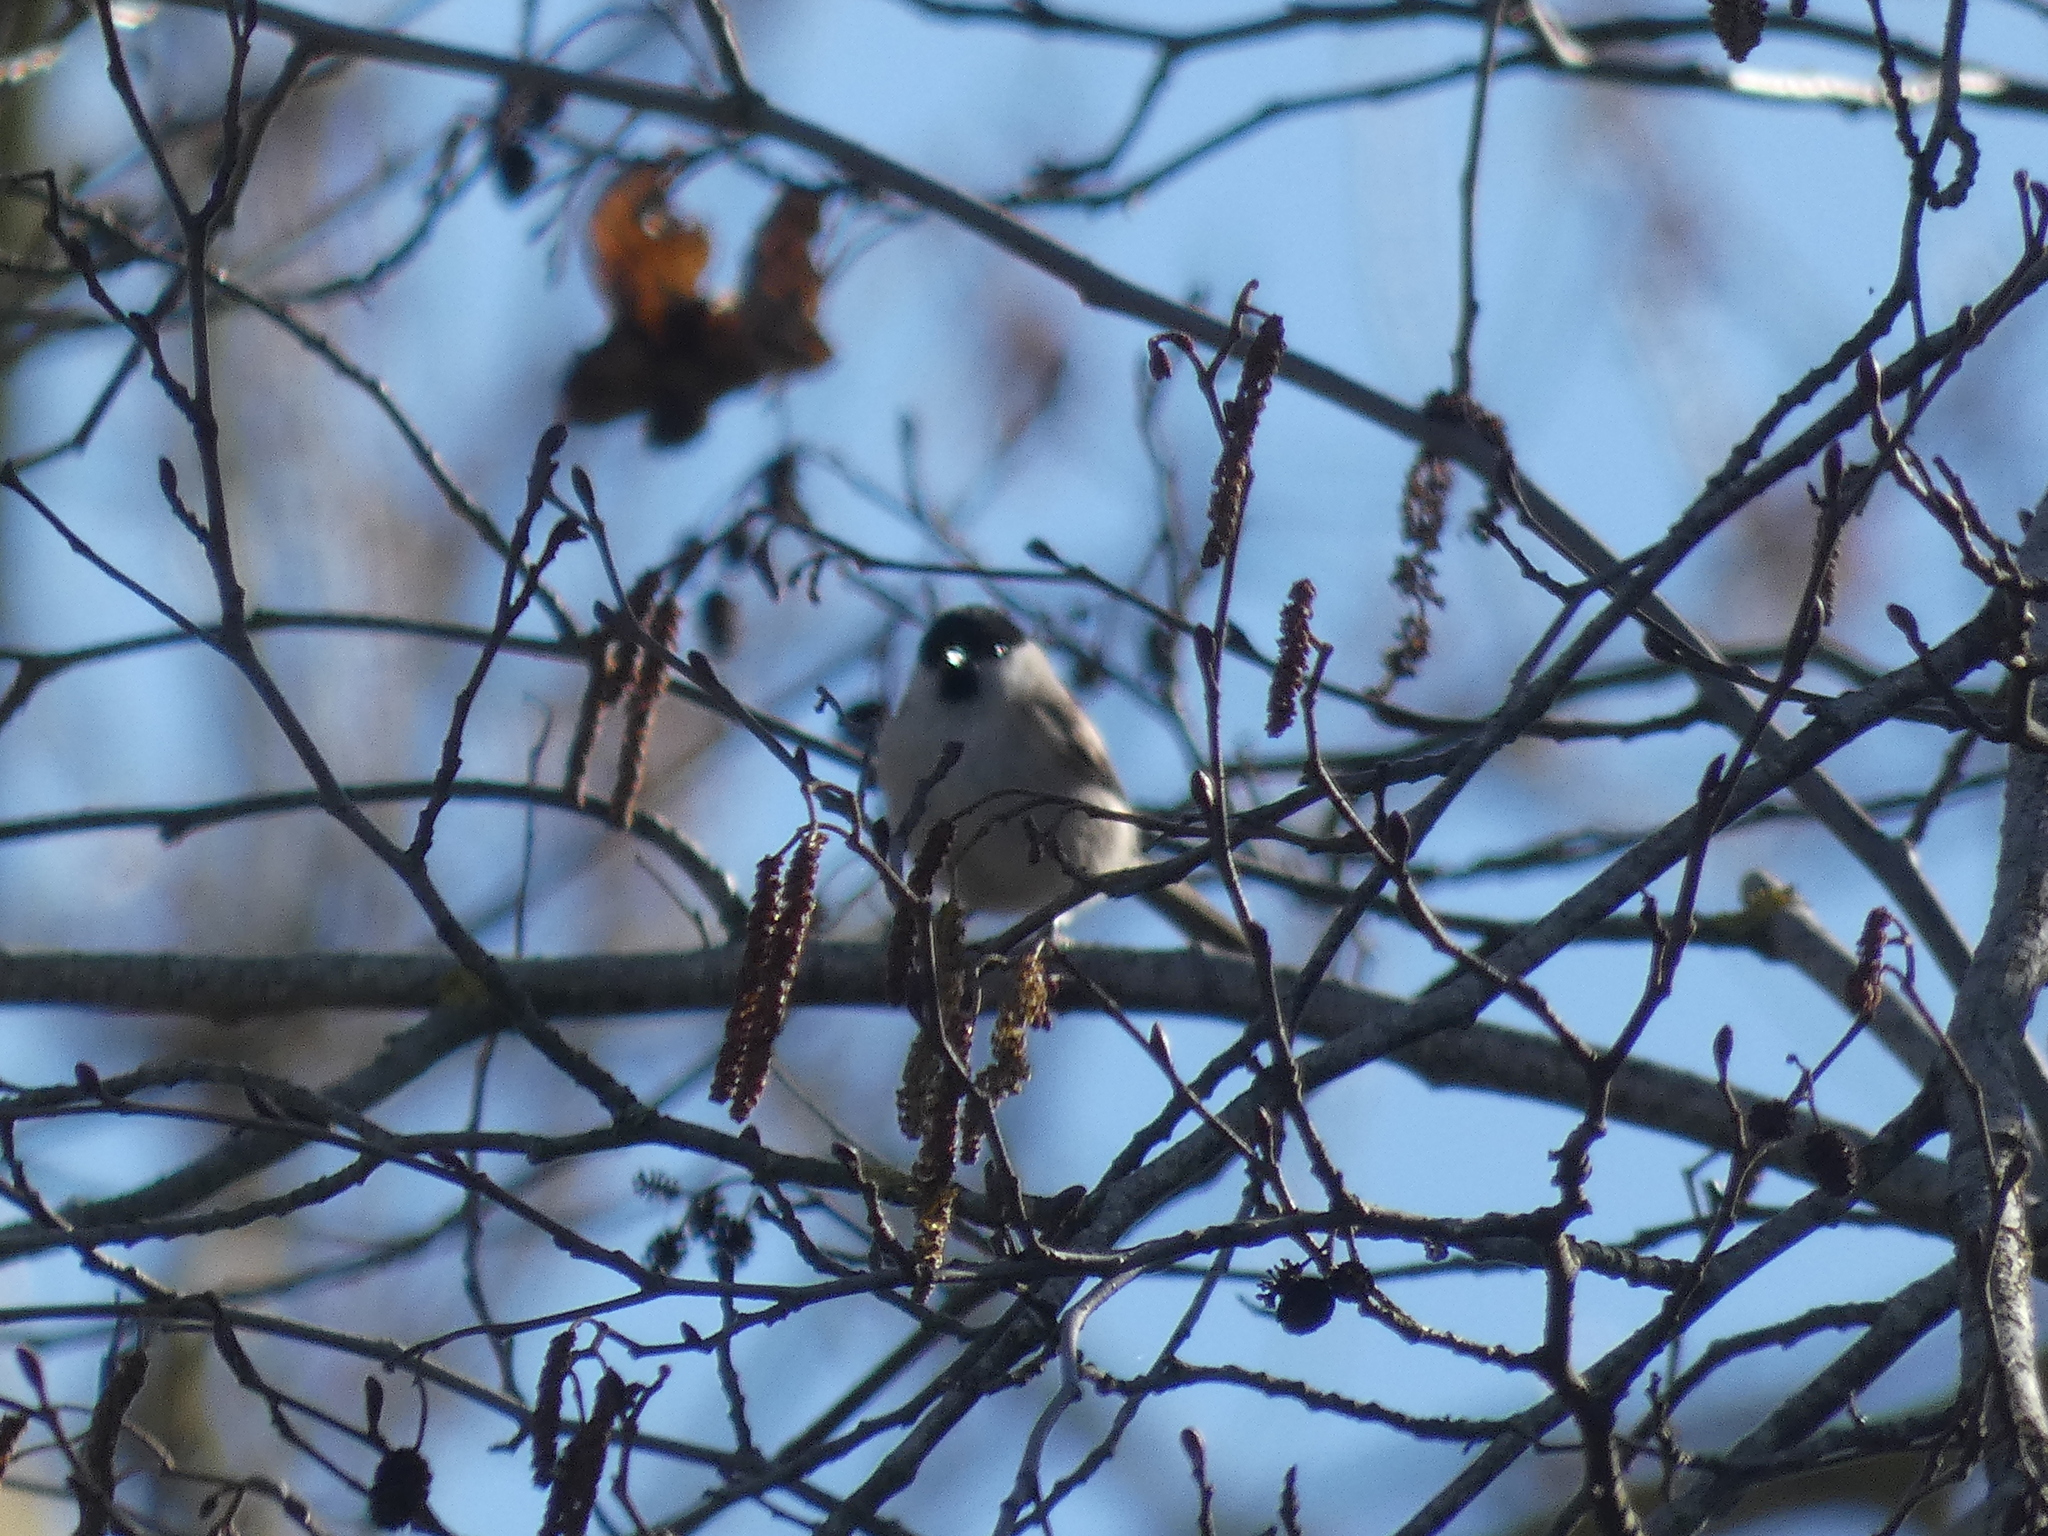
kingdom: Animalia
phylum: Chordata
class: Aves
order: Passeriformes
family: Paridae
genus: Poecile
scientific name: Poecile palustris
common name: Marsh tit
